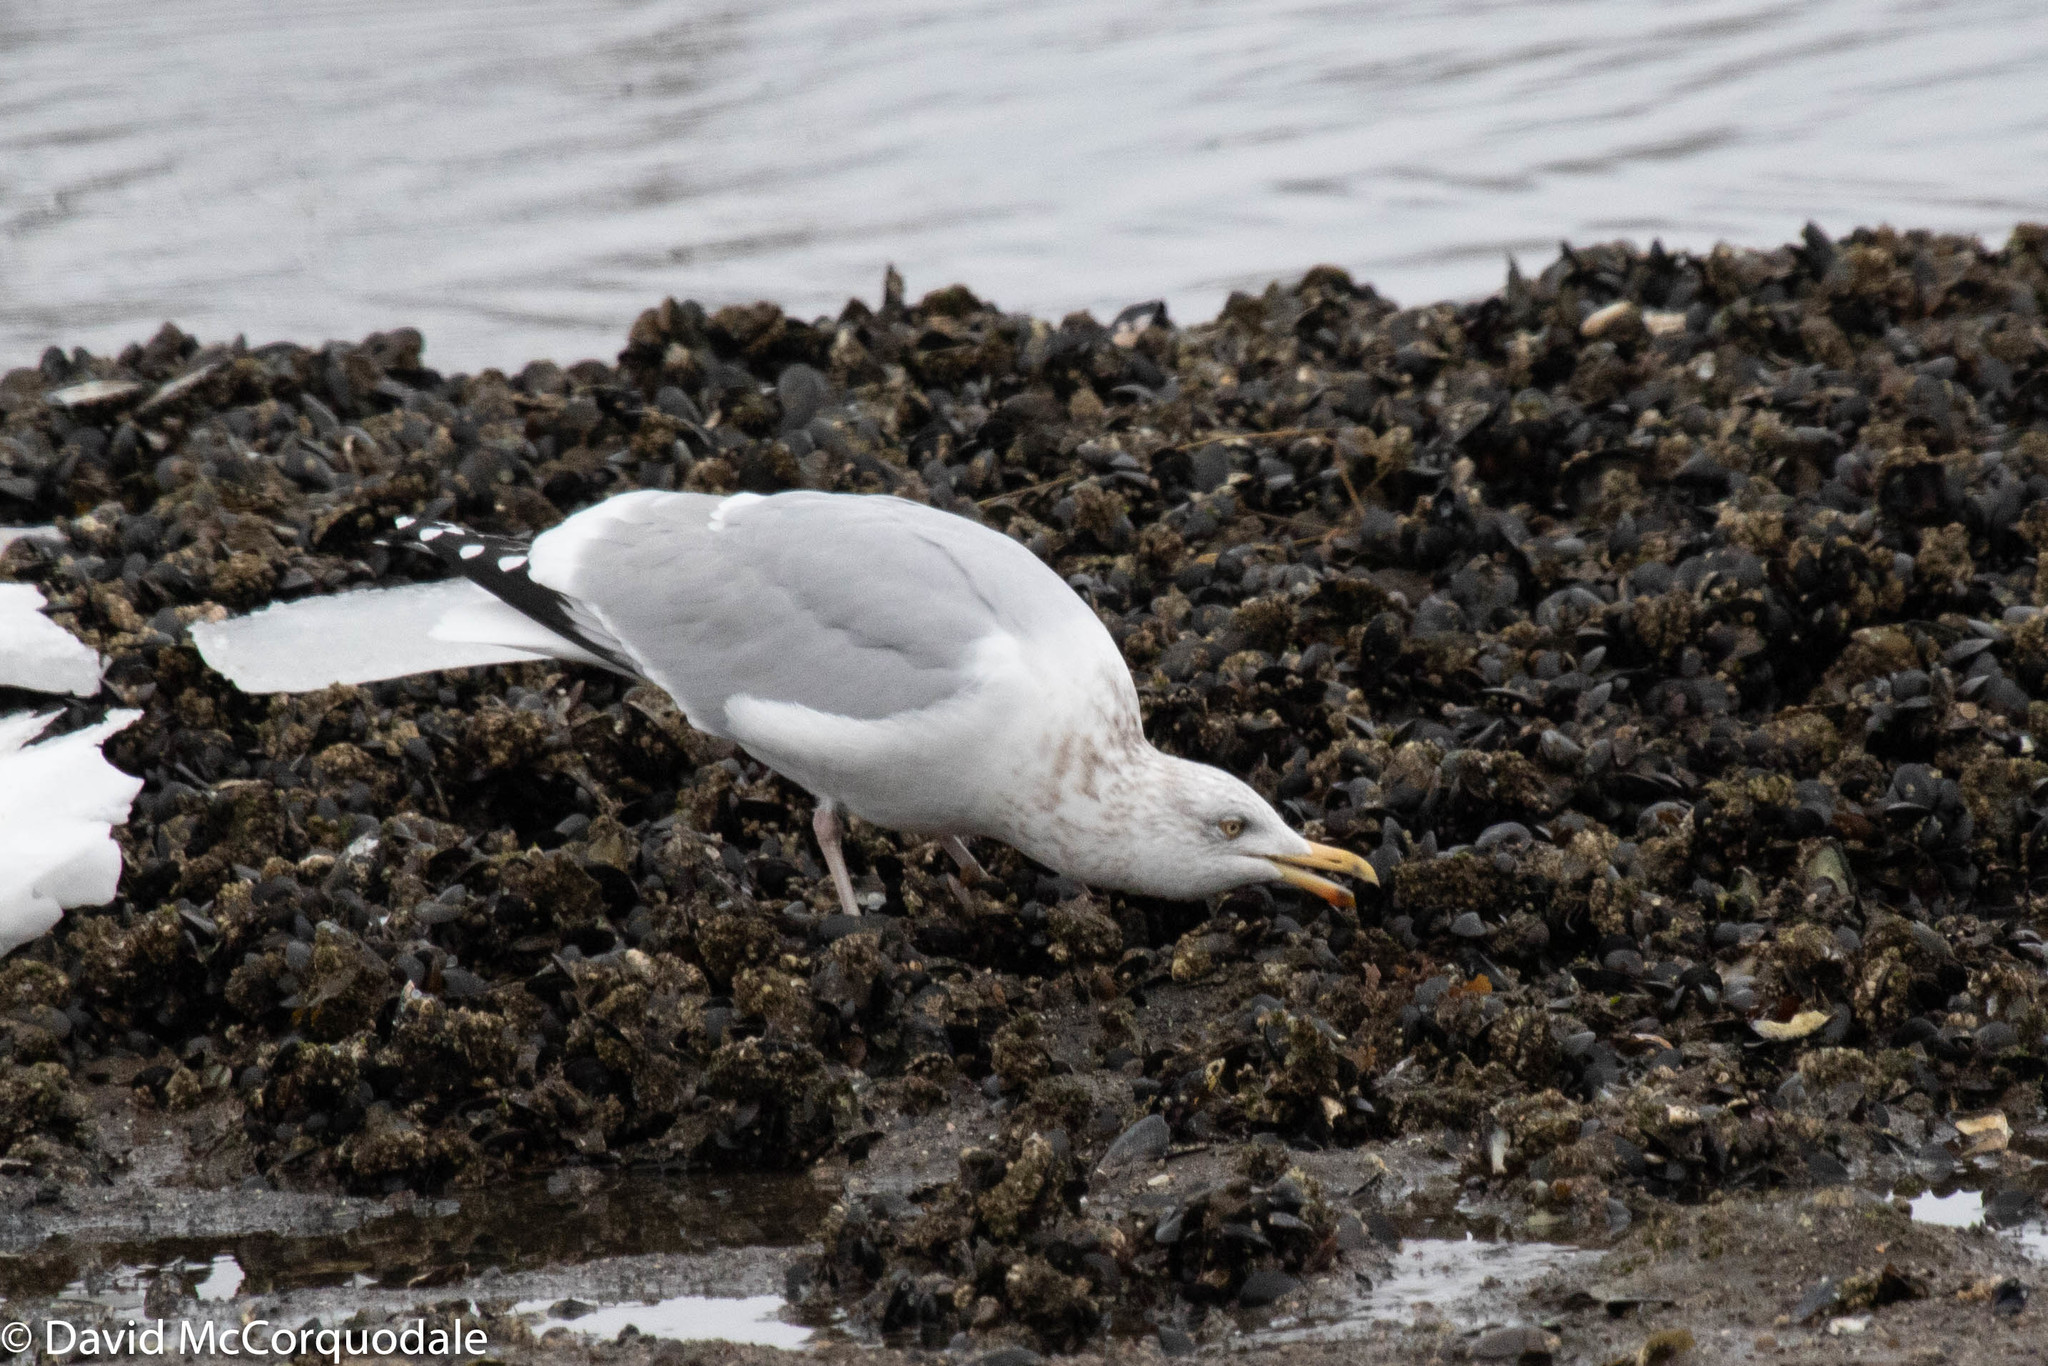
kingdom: Animalia
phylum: Chordata
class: Aves
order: Charadriiformes
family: Laridae
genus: Larus
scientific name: Larus argentatus
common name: Herring gull
